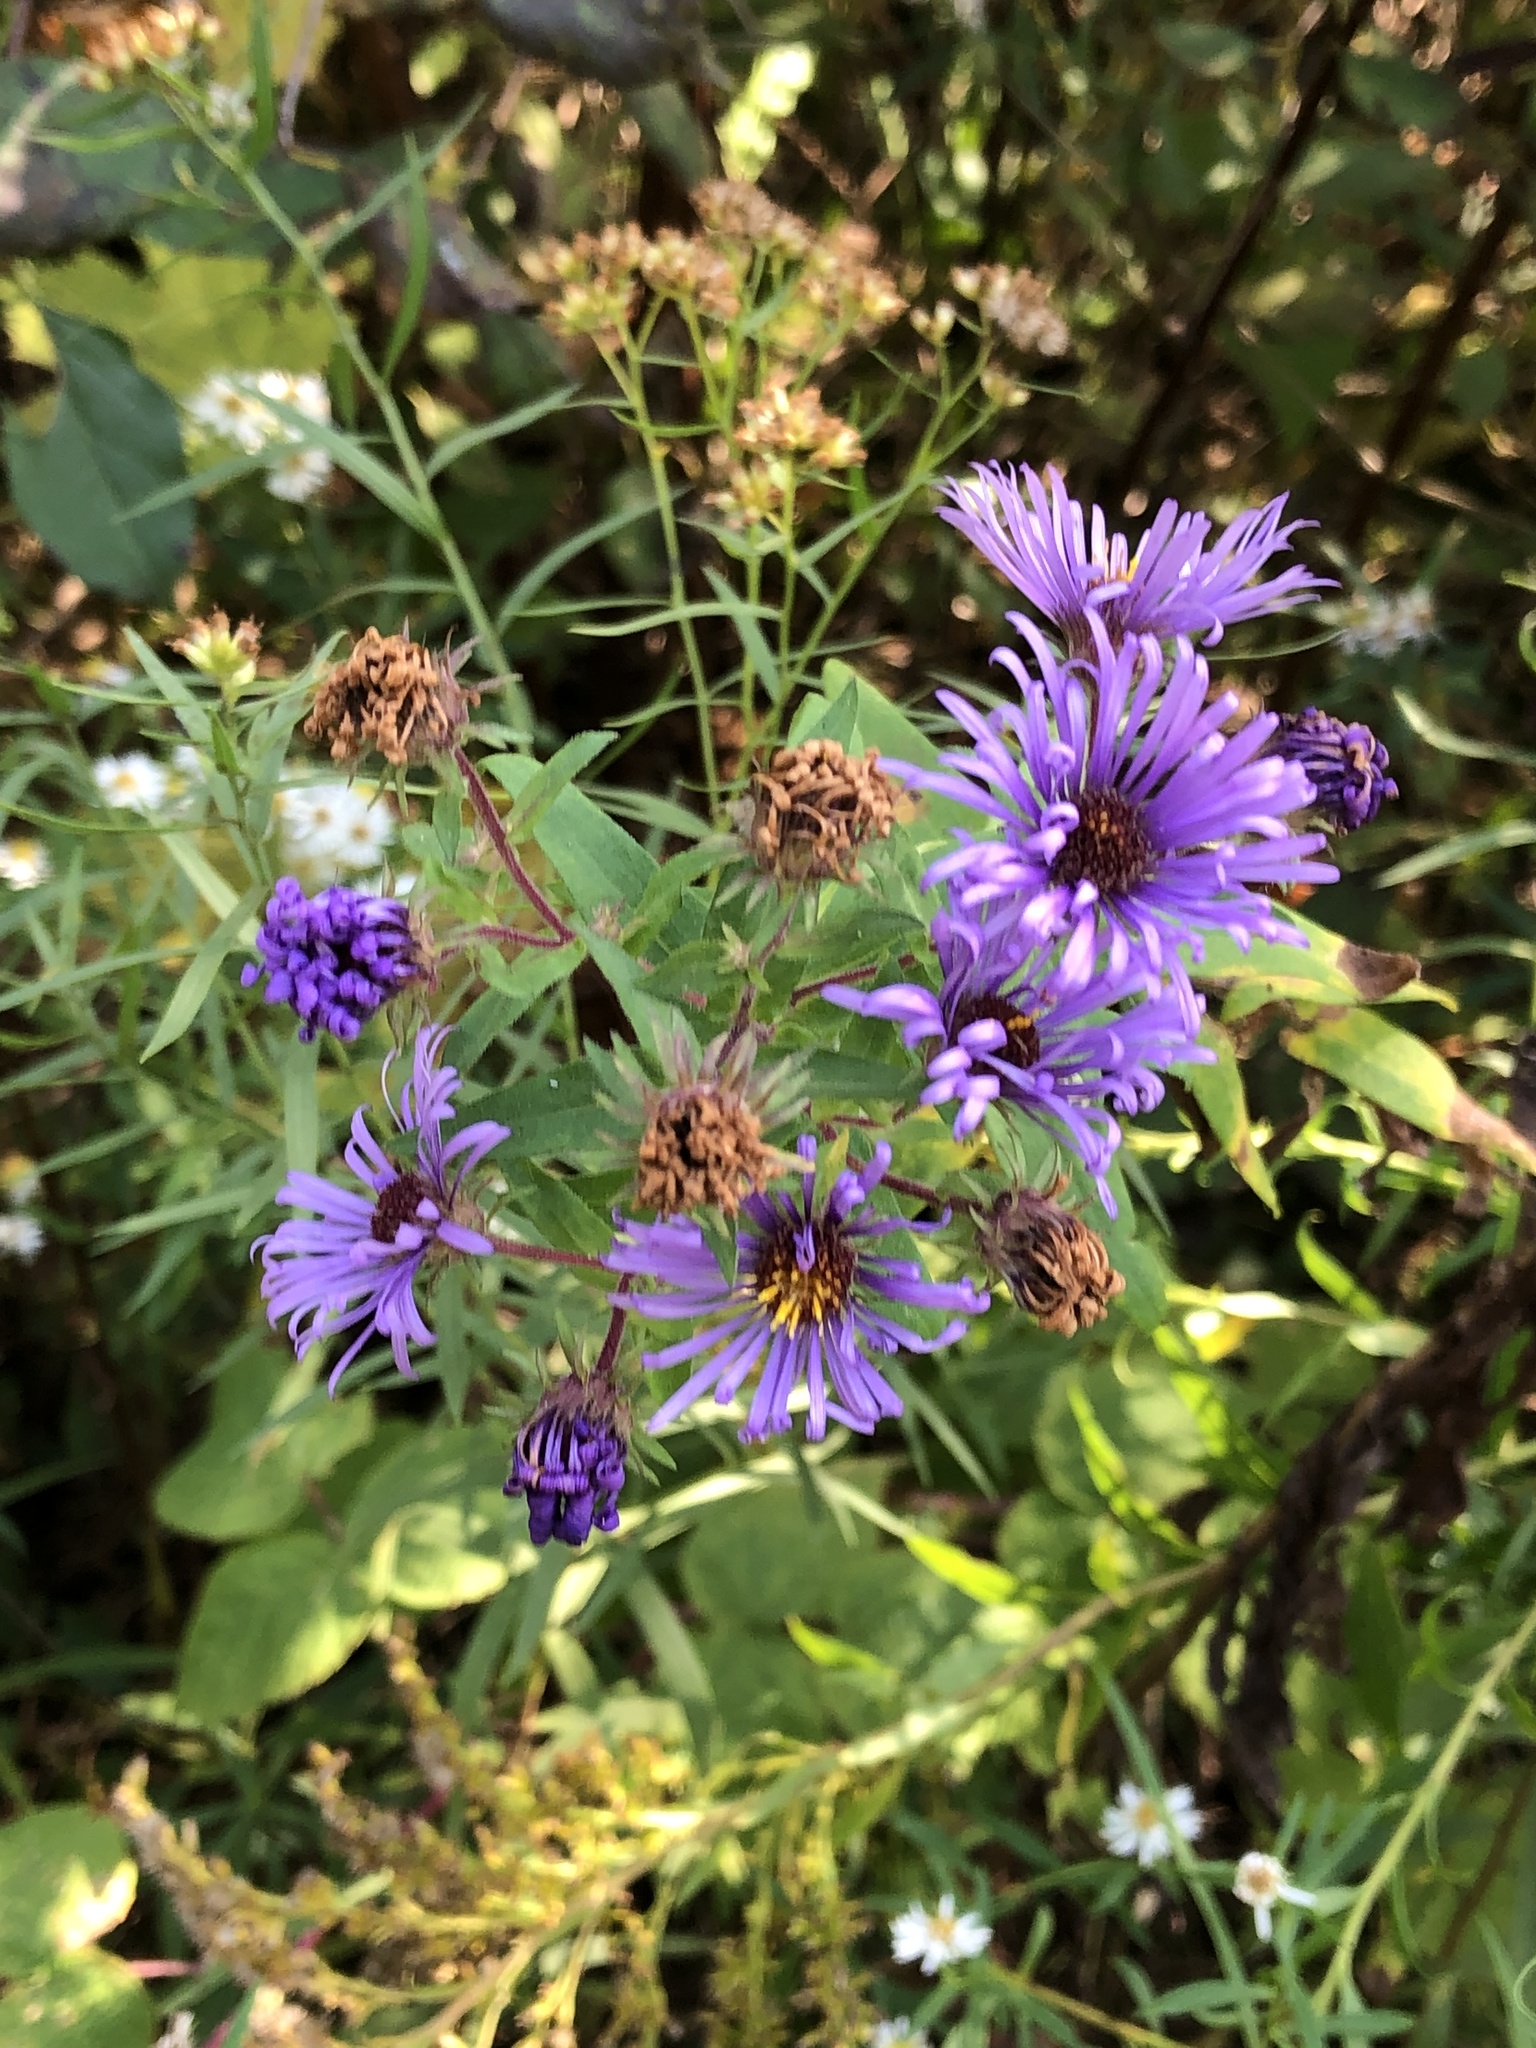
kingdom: Plantae
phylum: Tracheophyta
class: Magnoliopsida
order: Asterales
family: Asteraceae
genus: Symphyotrichum
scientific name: Symphyotrichum novae-angliae
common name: Michaelmas daisy
